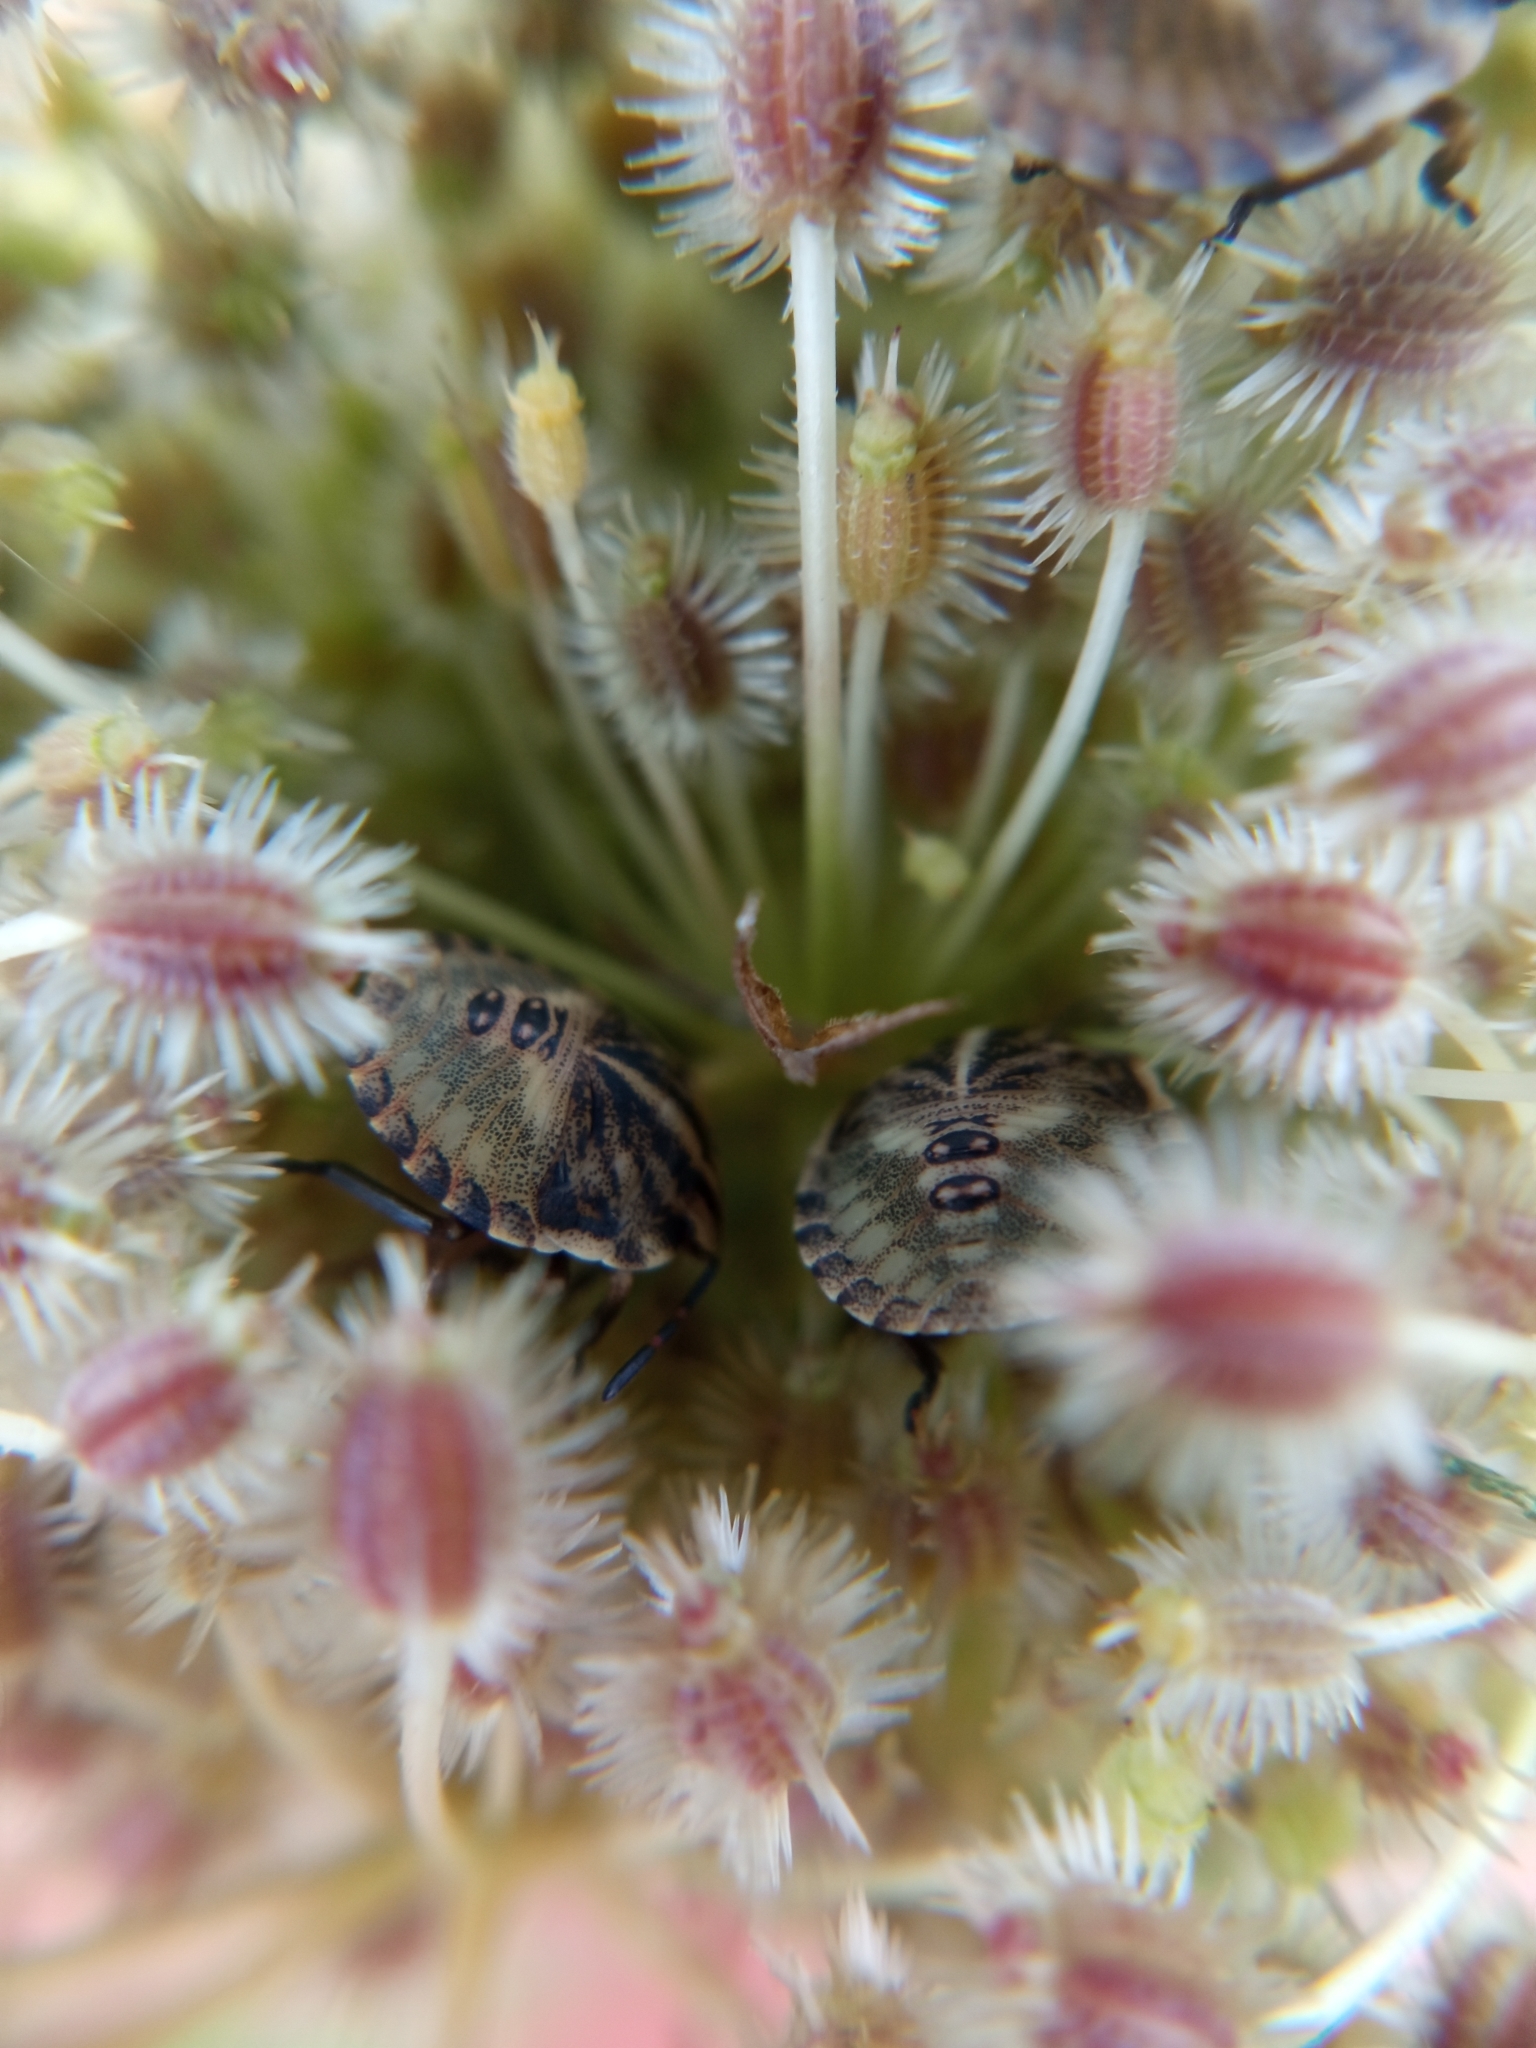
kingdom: Animalia
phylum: Arthropoda
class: Insecta
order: Hemiptera
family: Pentatomidae
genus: Graphosoma
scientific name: Graphosoma italicum
